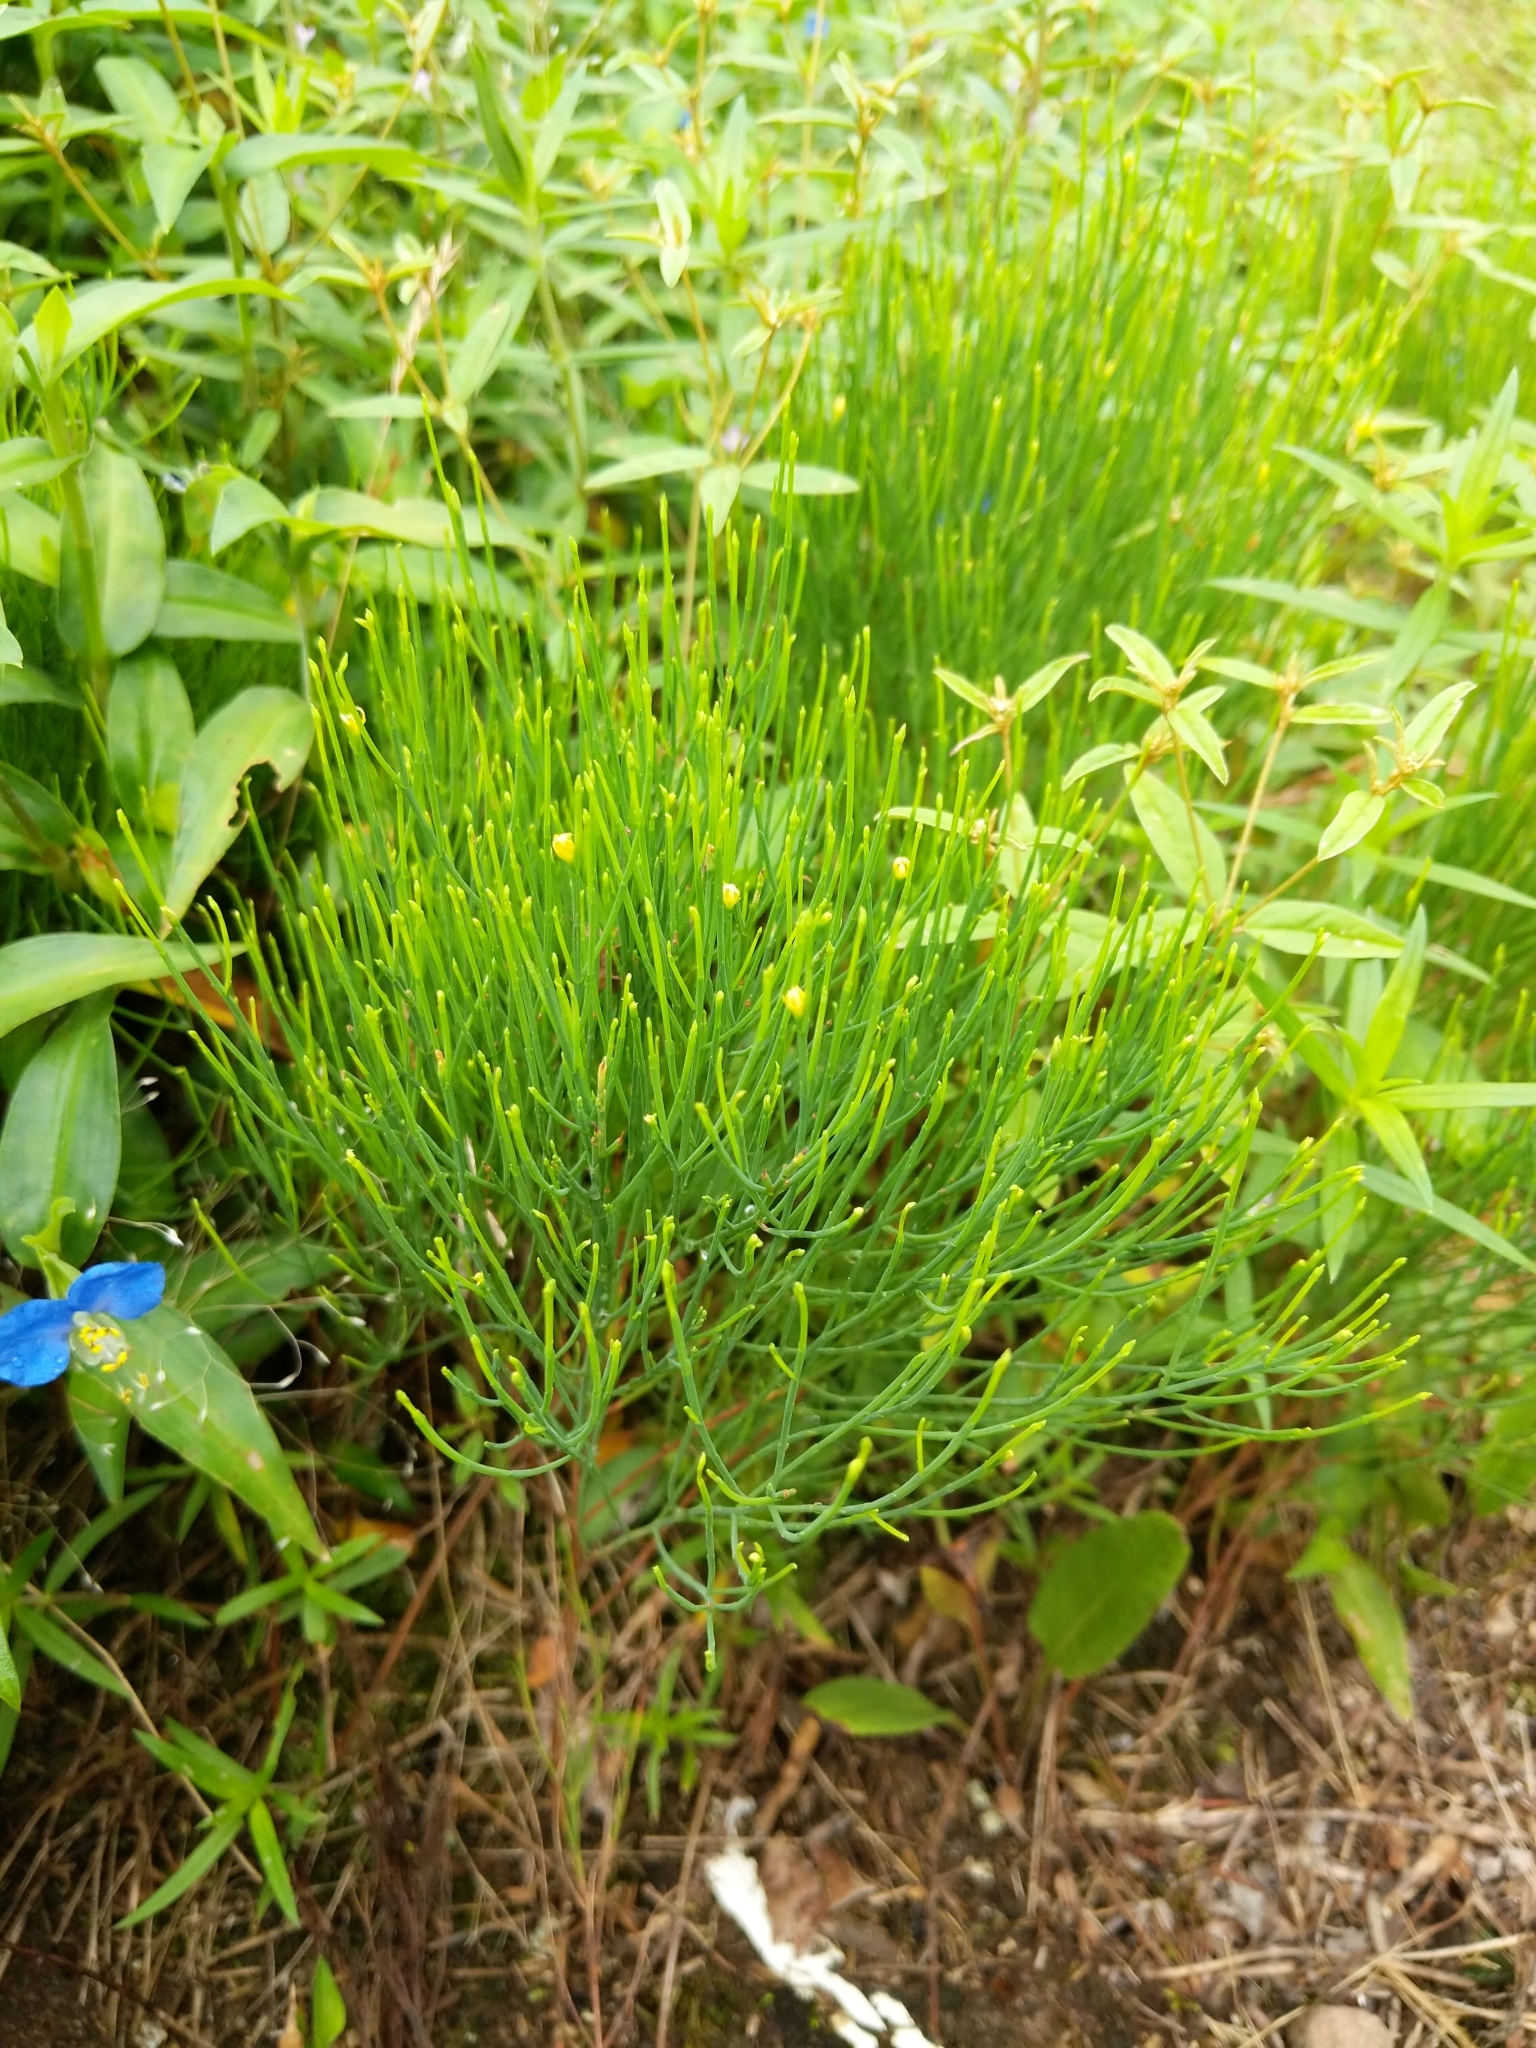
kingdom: Plantae
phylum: Tracheophyta
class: Magnoliopsida
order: Malpighiales
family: Hypericaceae
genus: Hypericum
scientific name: Hypericum gentianoides
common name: Gentian-leaved st. john's-wort
